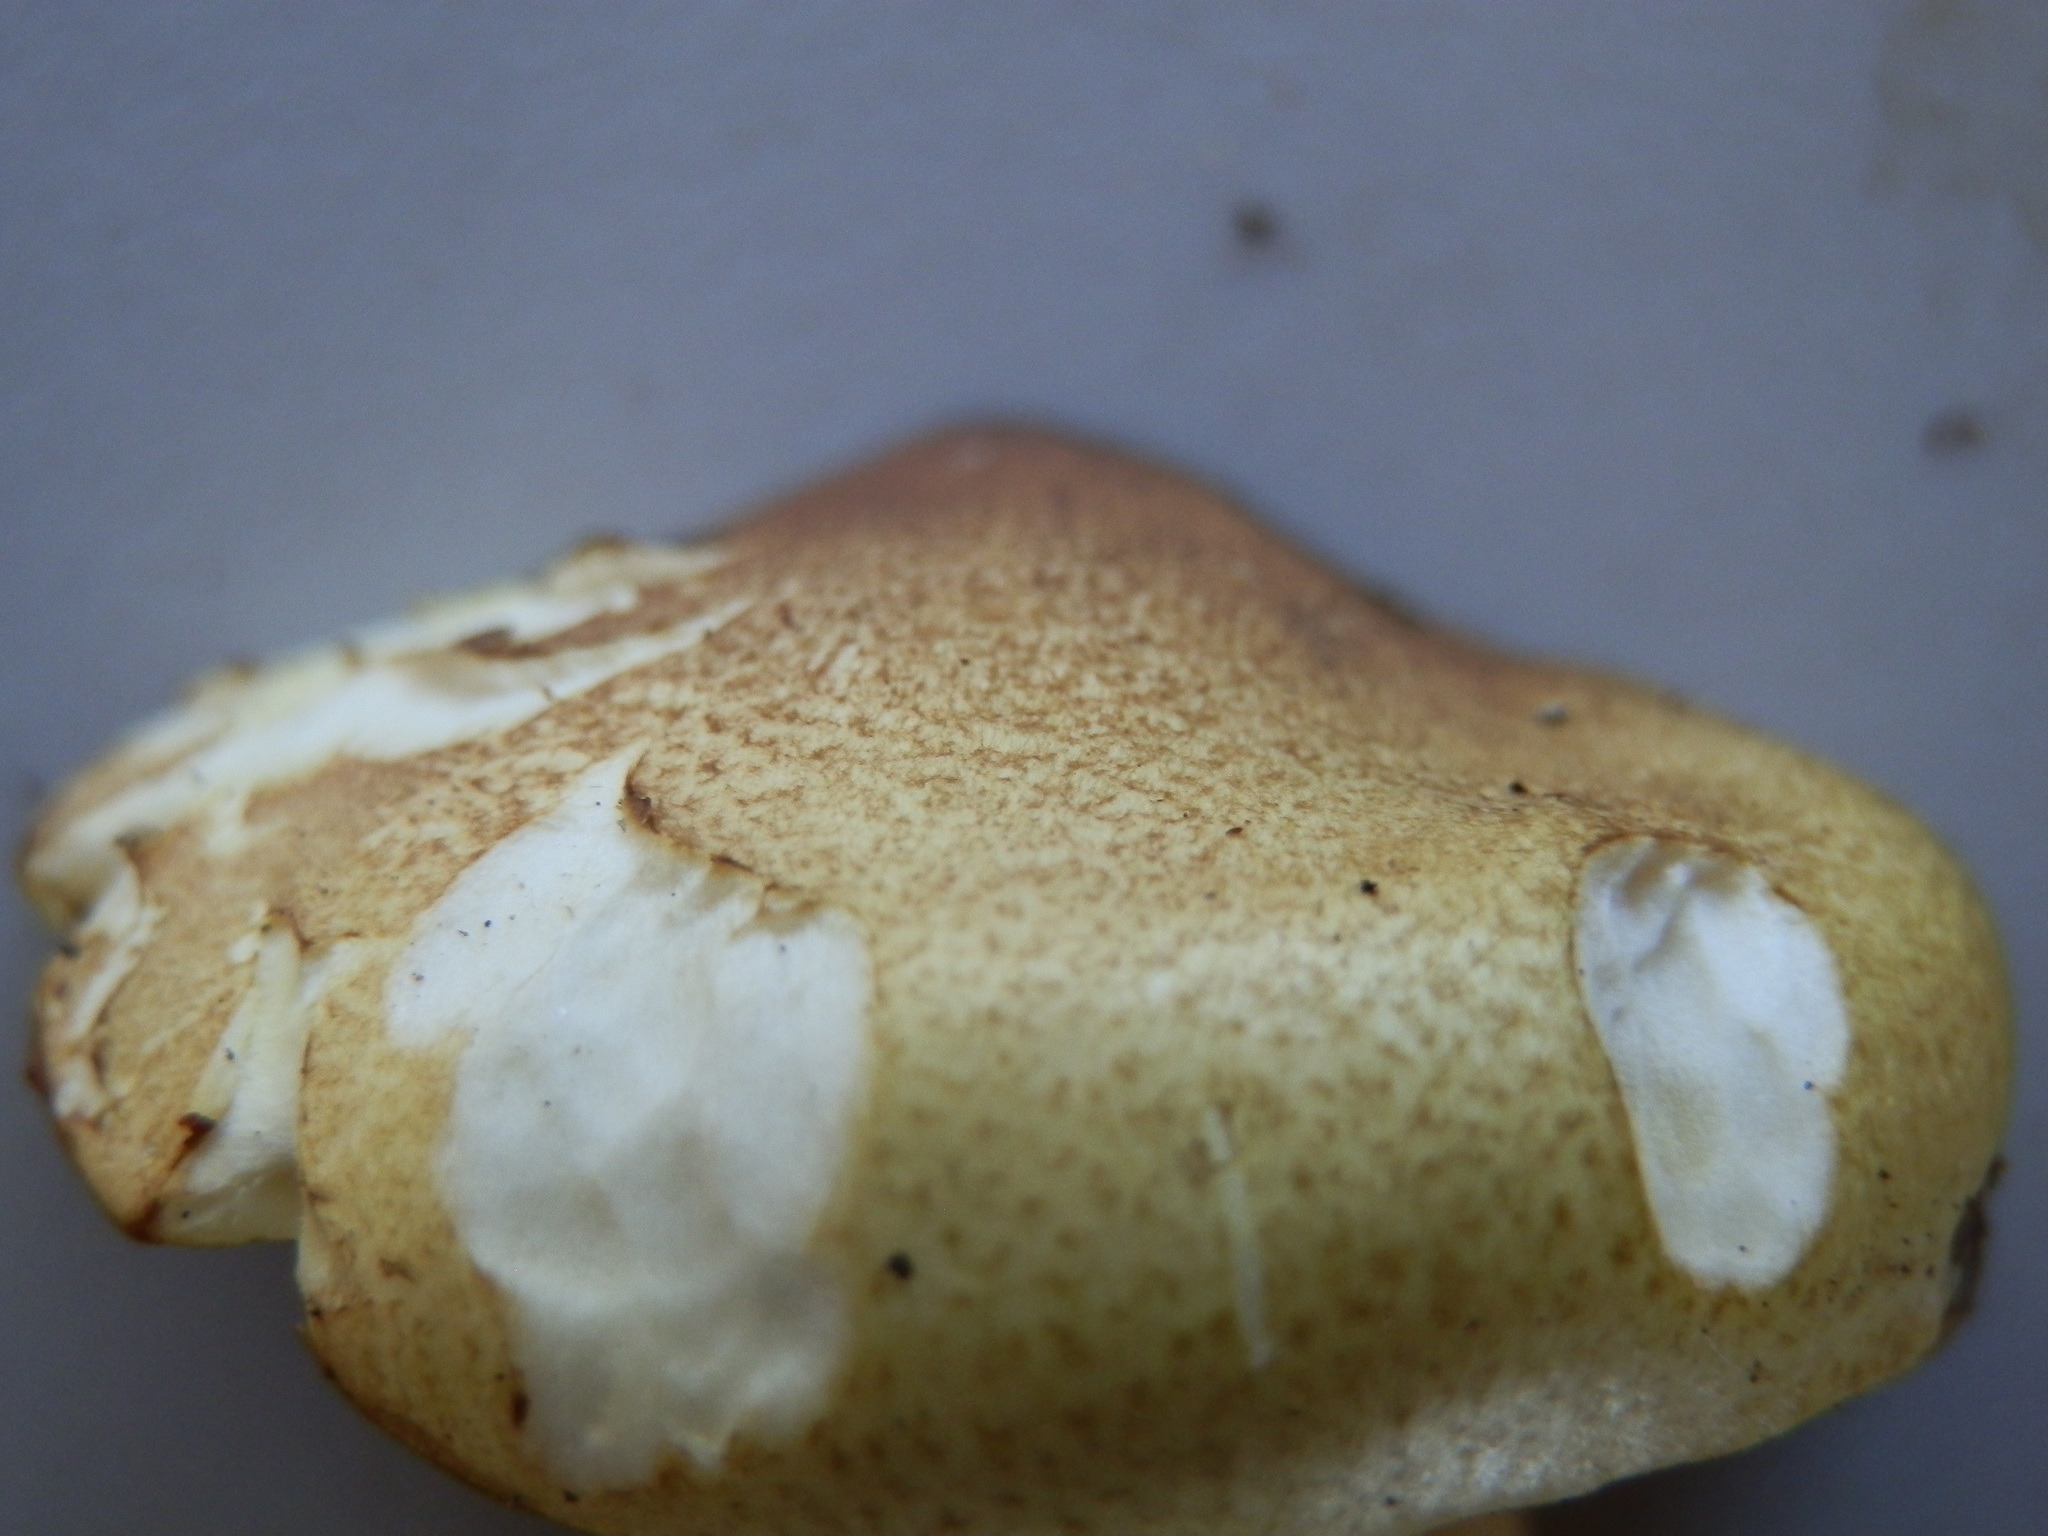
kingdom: Fungi
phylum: Basidiomycota
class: Agaricomycetes
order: Agaricales
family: Tricholomataceae
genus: Tricholoma
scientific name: Tricholoma equestre
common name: Yellow knight
